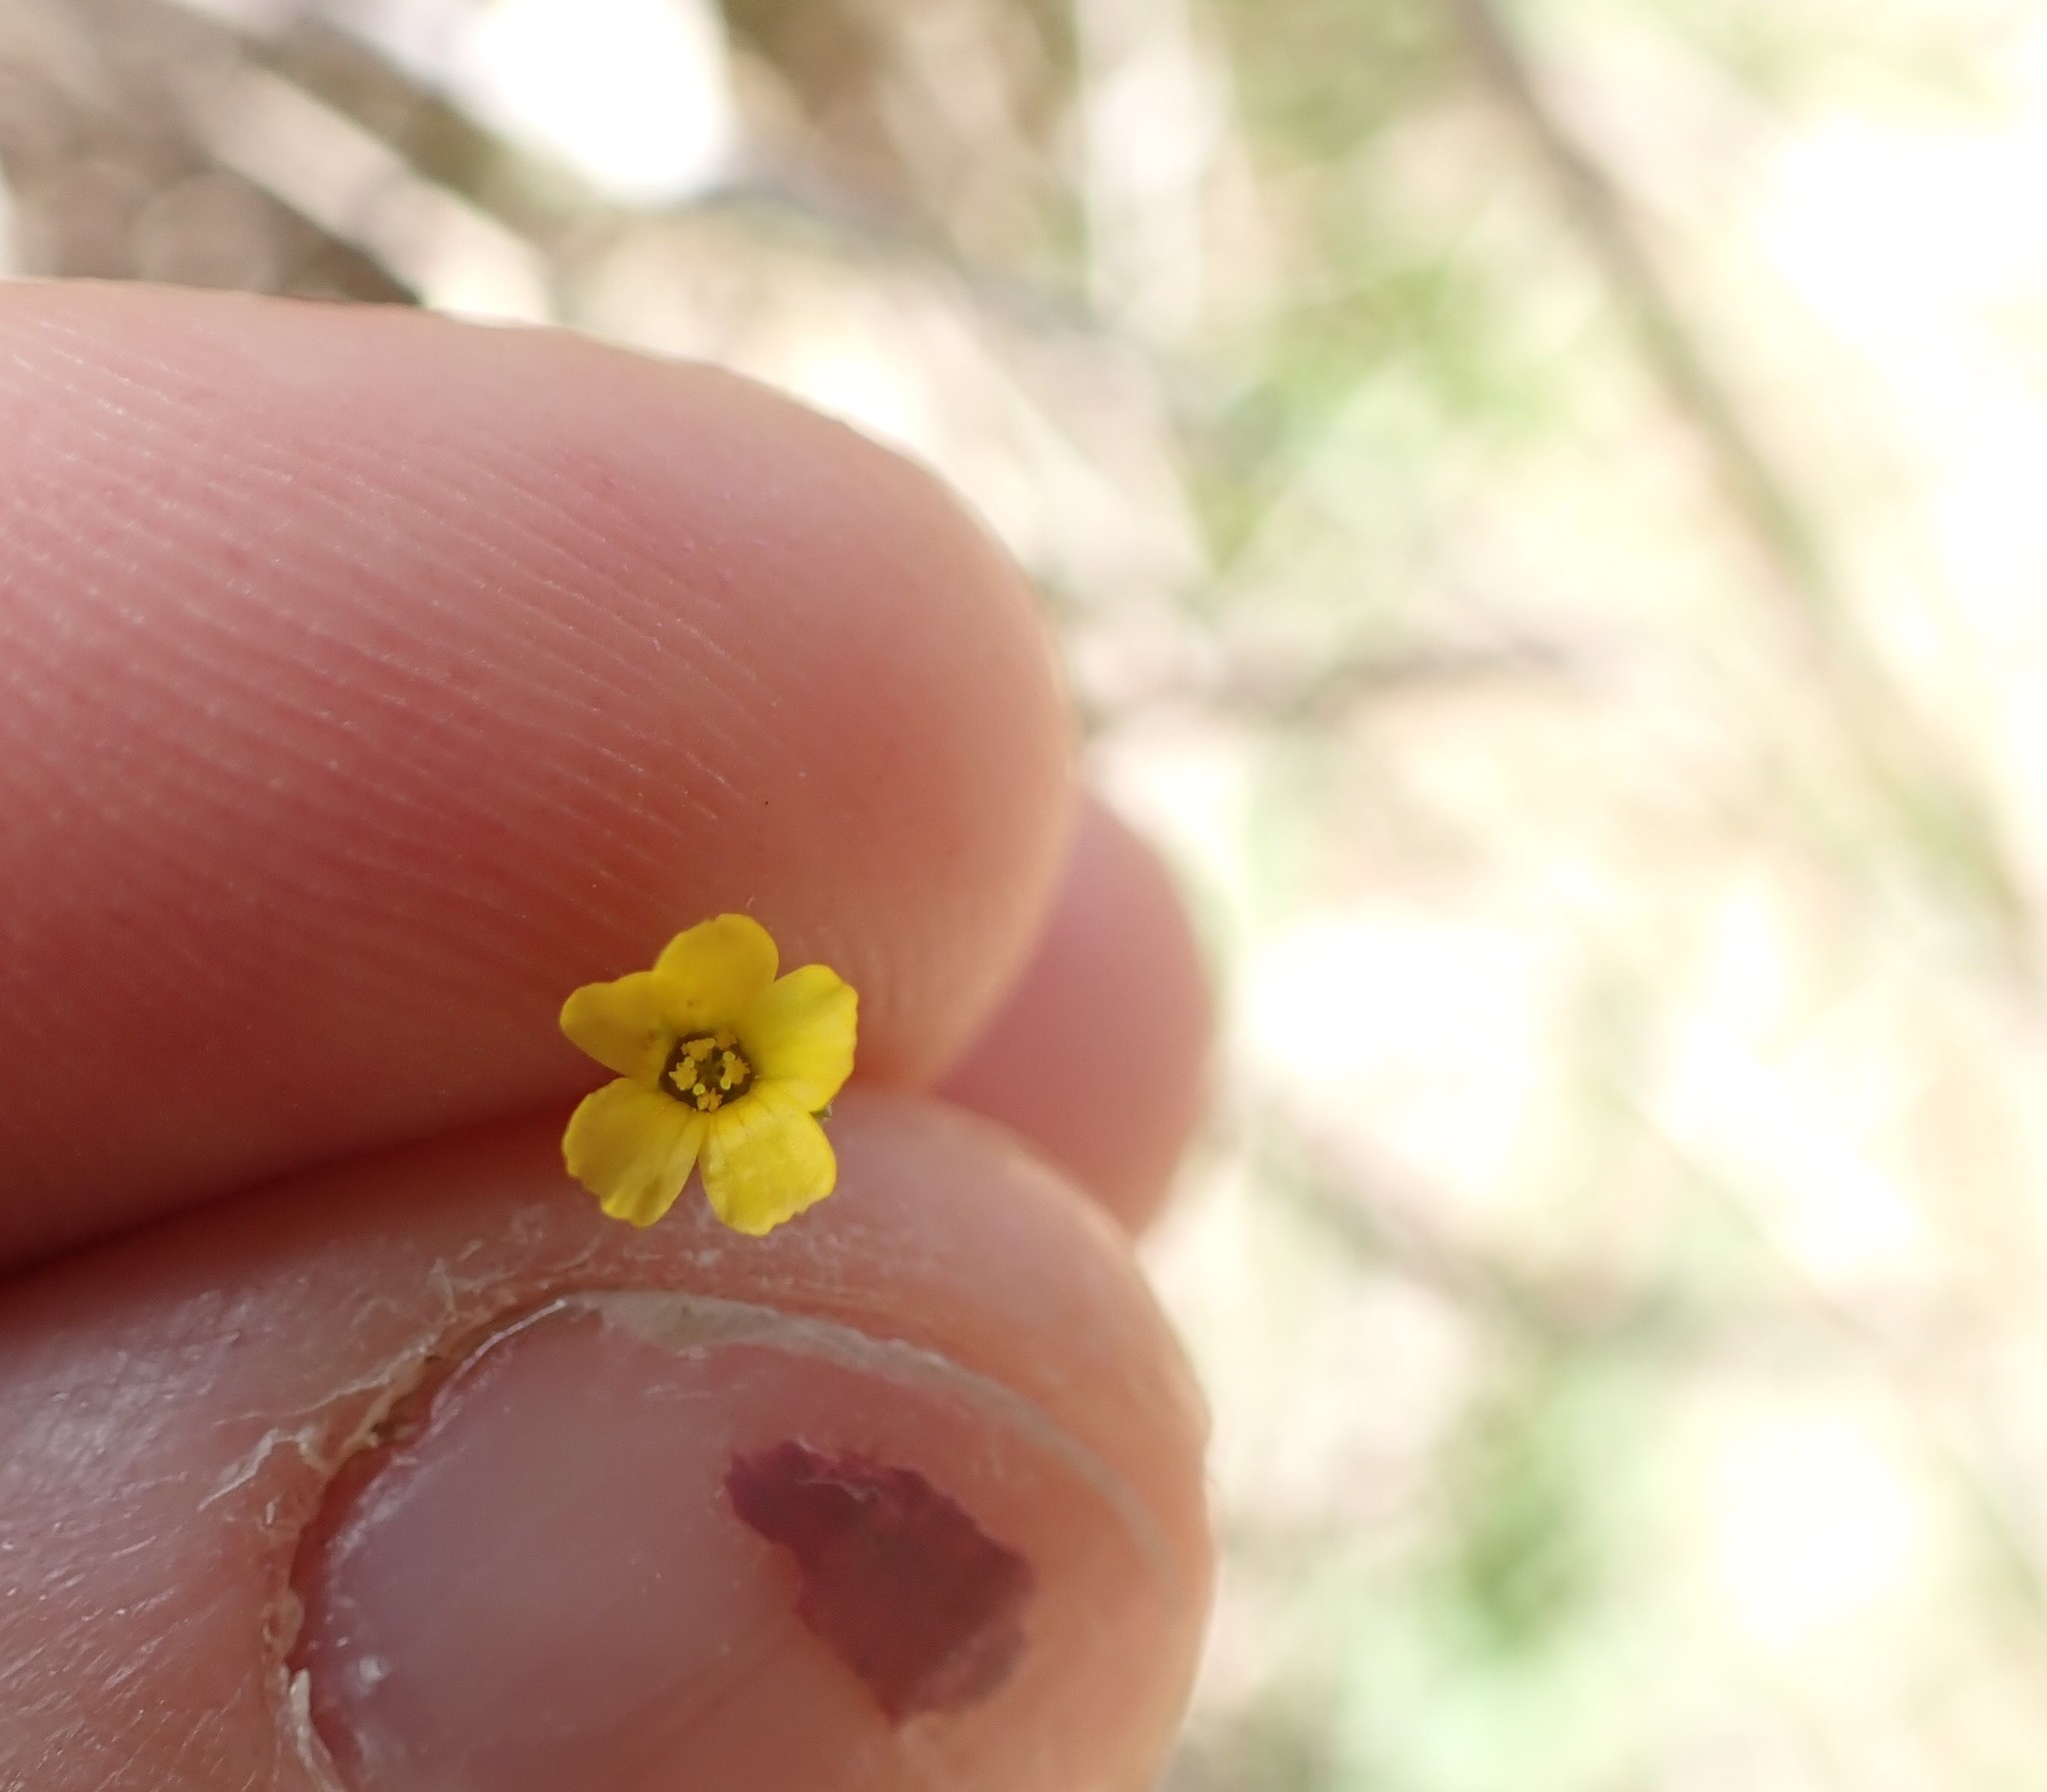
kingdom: Plantae
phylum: Tracheophyta
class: Magnoliopsida
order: Malpighiales
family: Linaceae
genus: Linum
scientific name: Linum trigynum
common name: French flax
